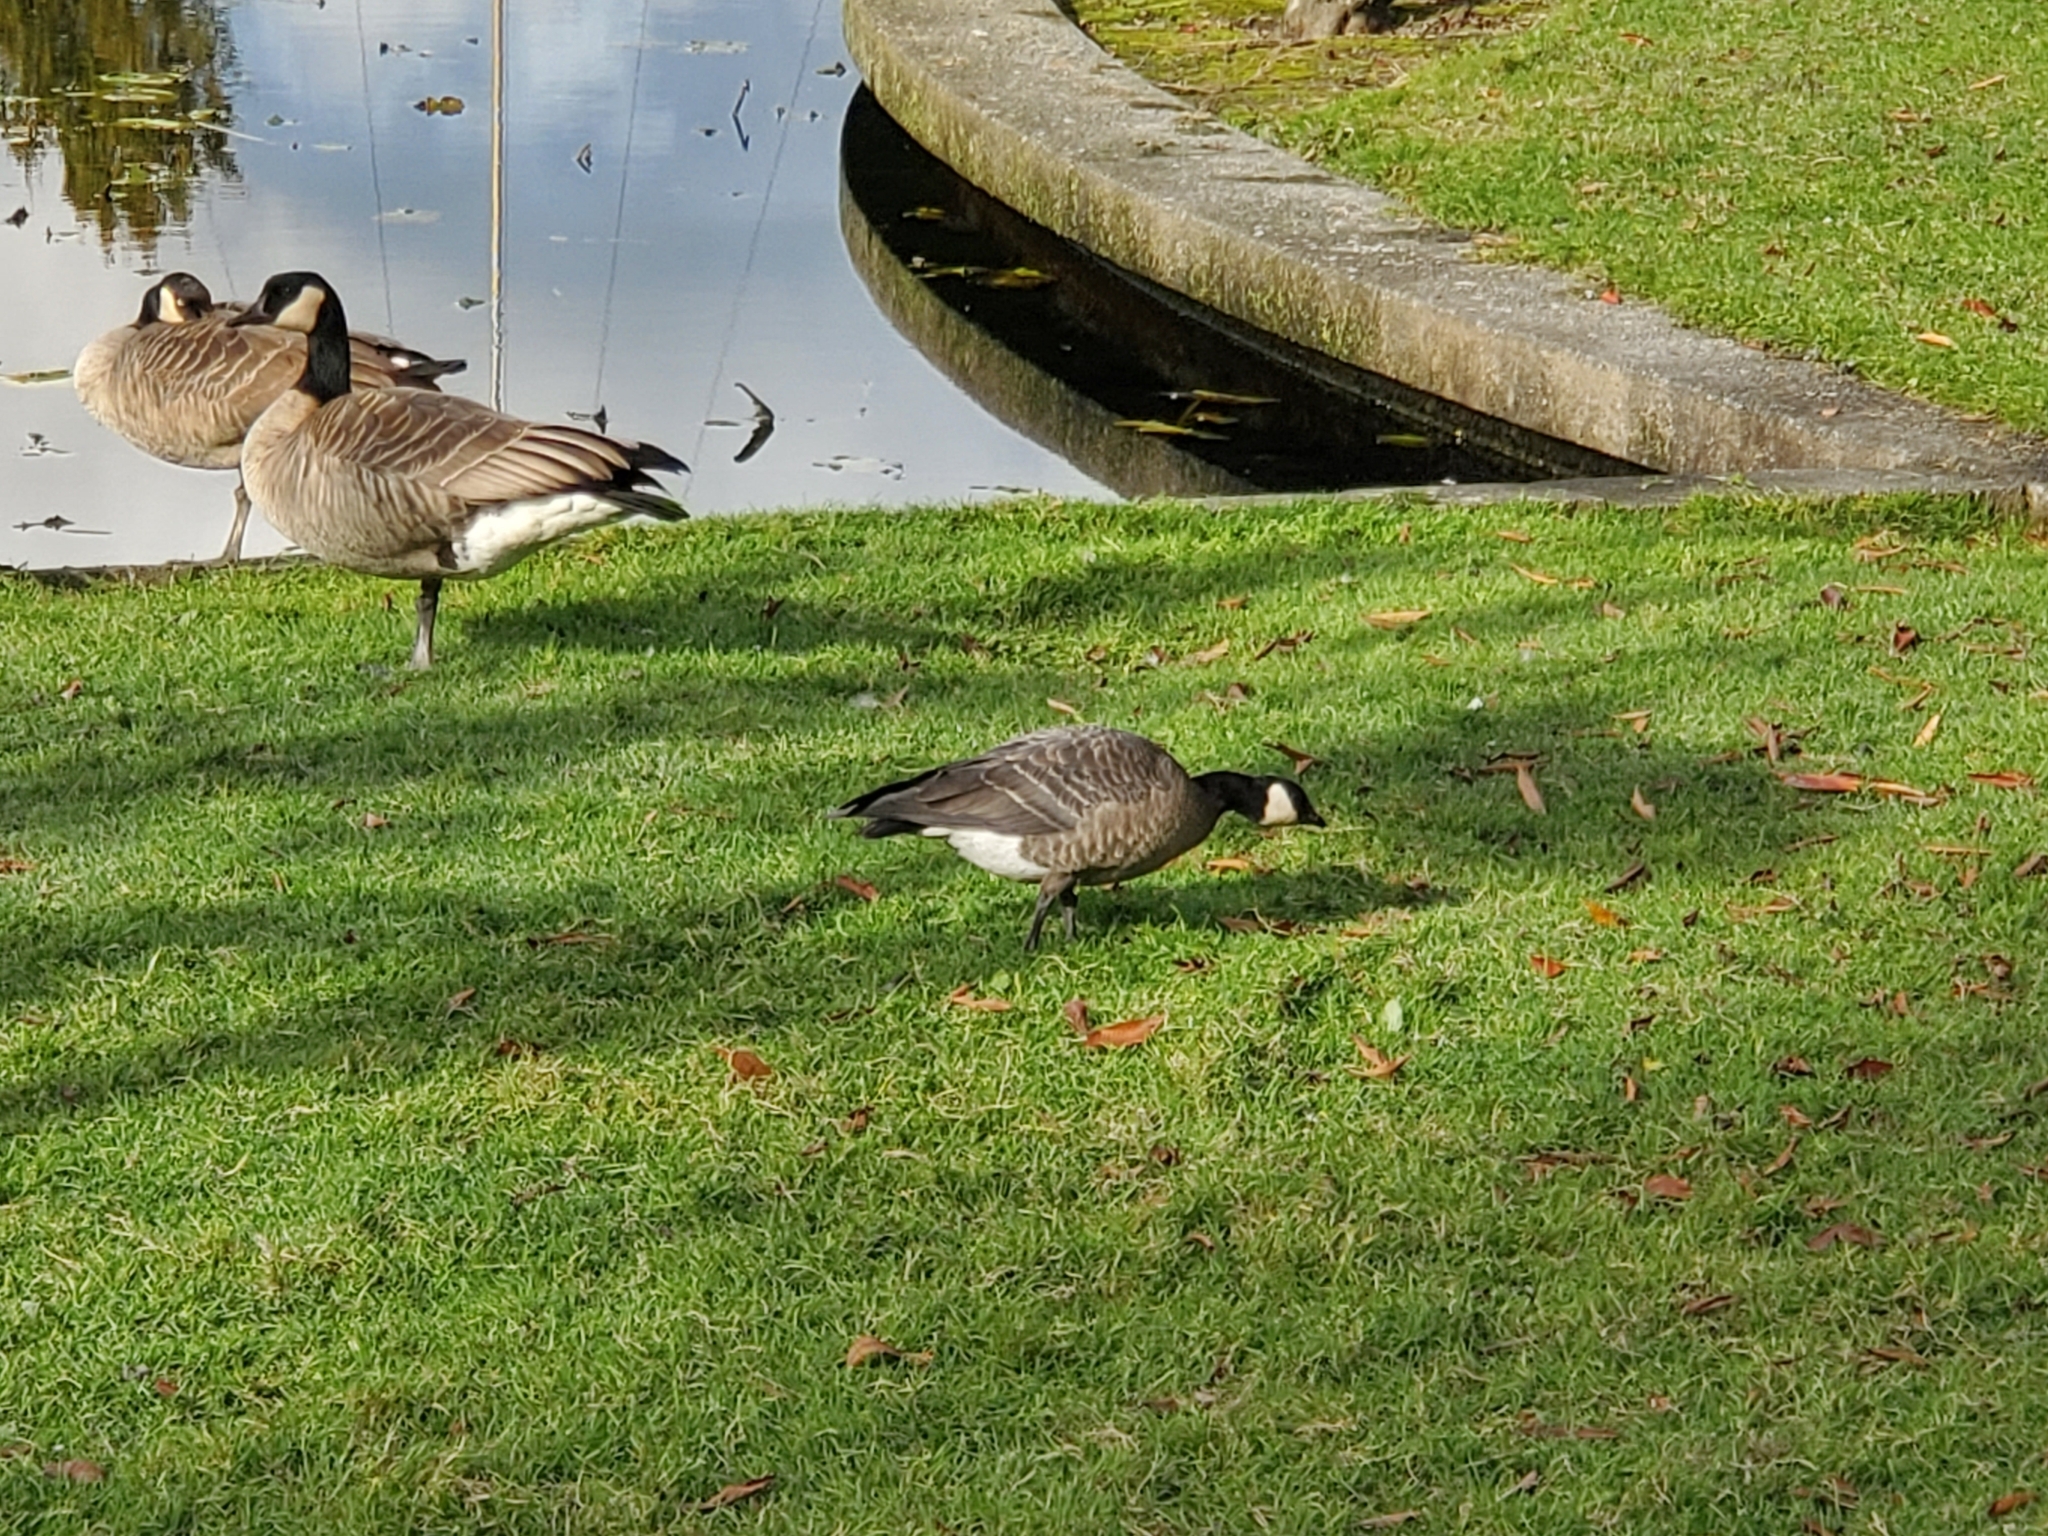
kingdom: Animalia
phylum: Chordata
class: Aves
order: Anseriformes
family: Anatidae
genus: Branta
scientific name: Branta hutchinsii
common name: Cackling goose
